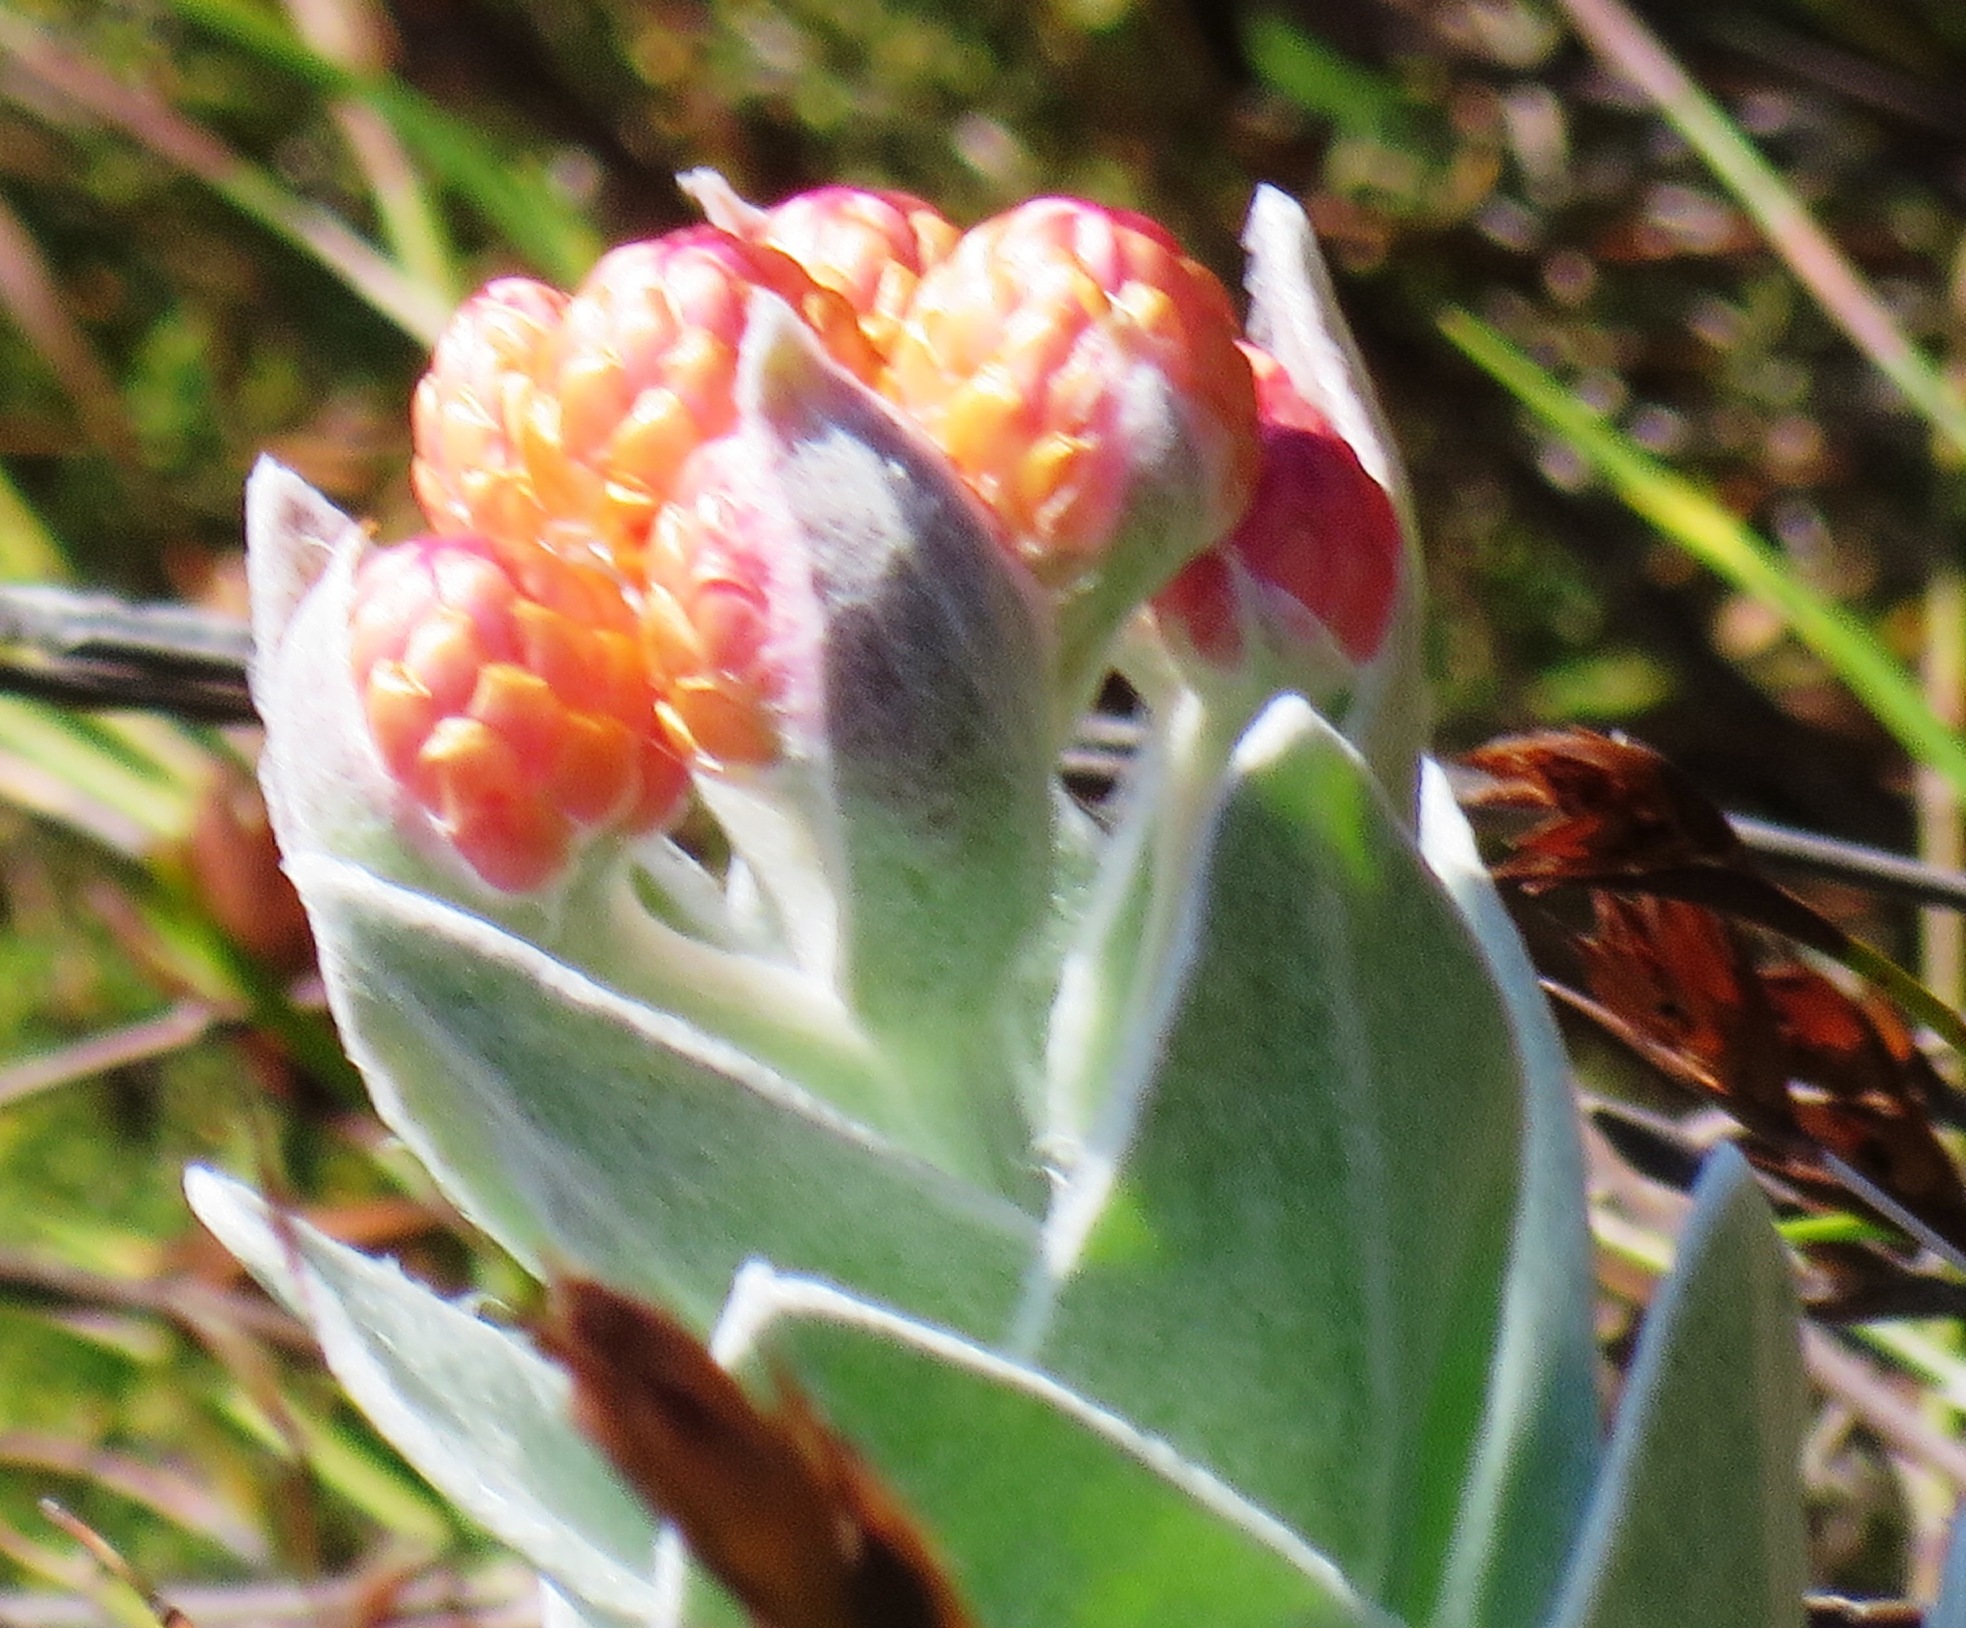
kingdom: Plantae
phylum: Tracheophyta
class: Magnoliopsida
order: Asterales
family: Asteraceae
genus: Syncarpha
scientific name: Syncarpha eximia
